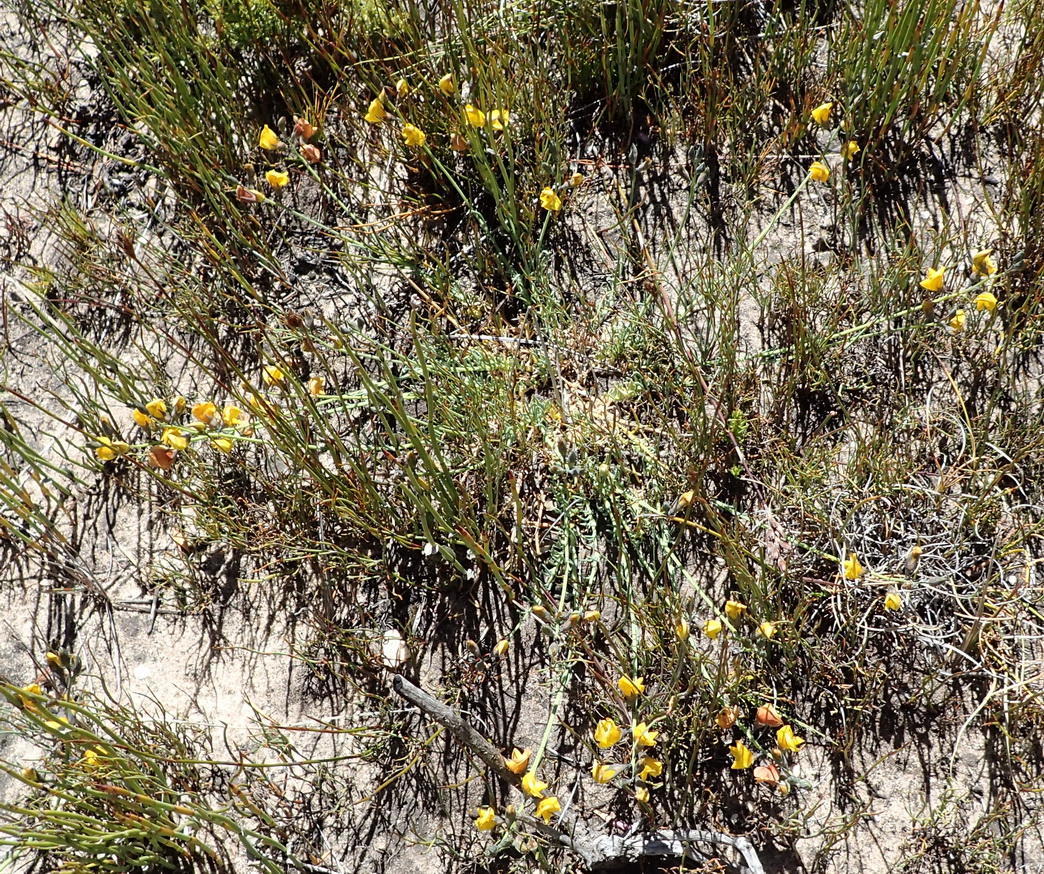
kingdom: Plantae
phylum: Tracheophyta
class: Magnoliopsida
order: Fabales
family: Fabaceae
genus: Lebeckia
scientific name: Lebeckia pauciflora
